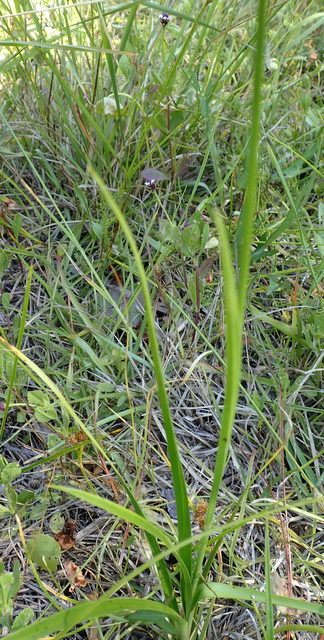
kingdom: Plantae
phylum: Tracheophyta
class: Liliopsida
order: Poales
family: Cyperaceae
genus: Rhynchospora
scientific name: Rhynchospora colorata
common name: Star sedge
